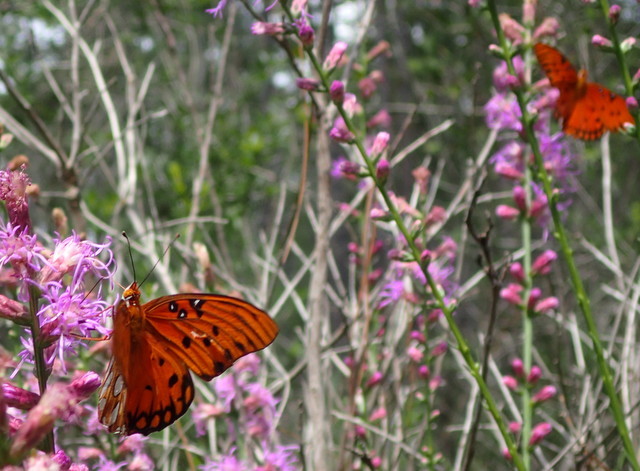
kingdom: Animalia
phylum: Arthropoda
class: Insecta
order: Lepidoptera
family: Nymphalidae
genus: Dione
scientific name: Dione vanillae
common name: Gulf fritillary
